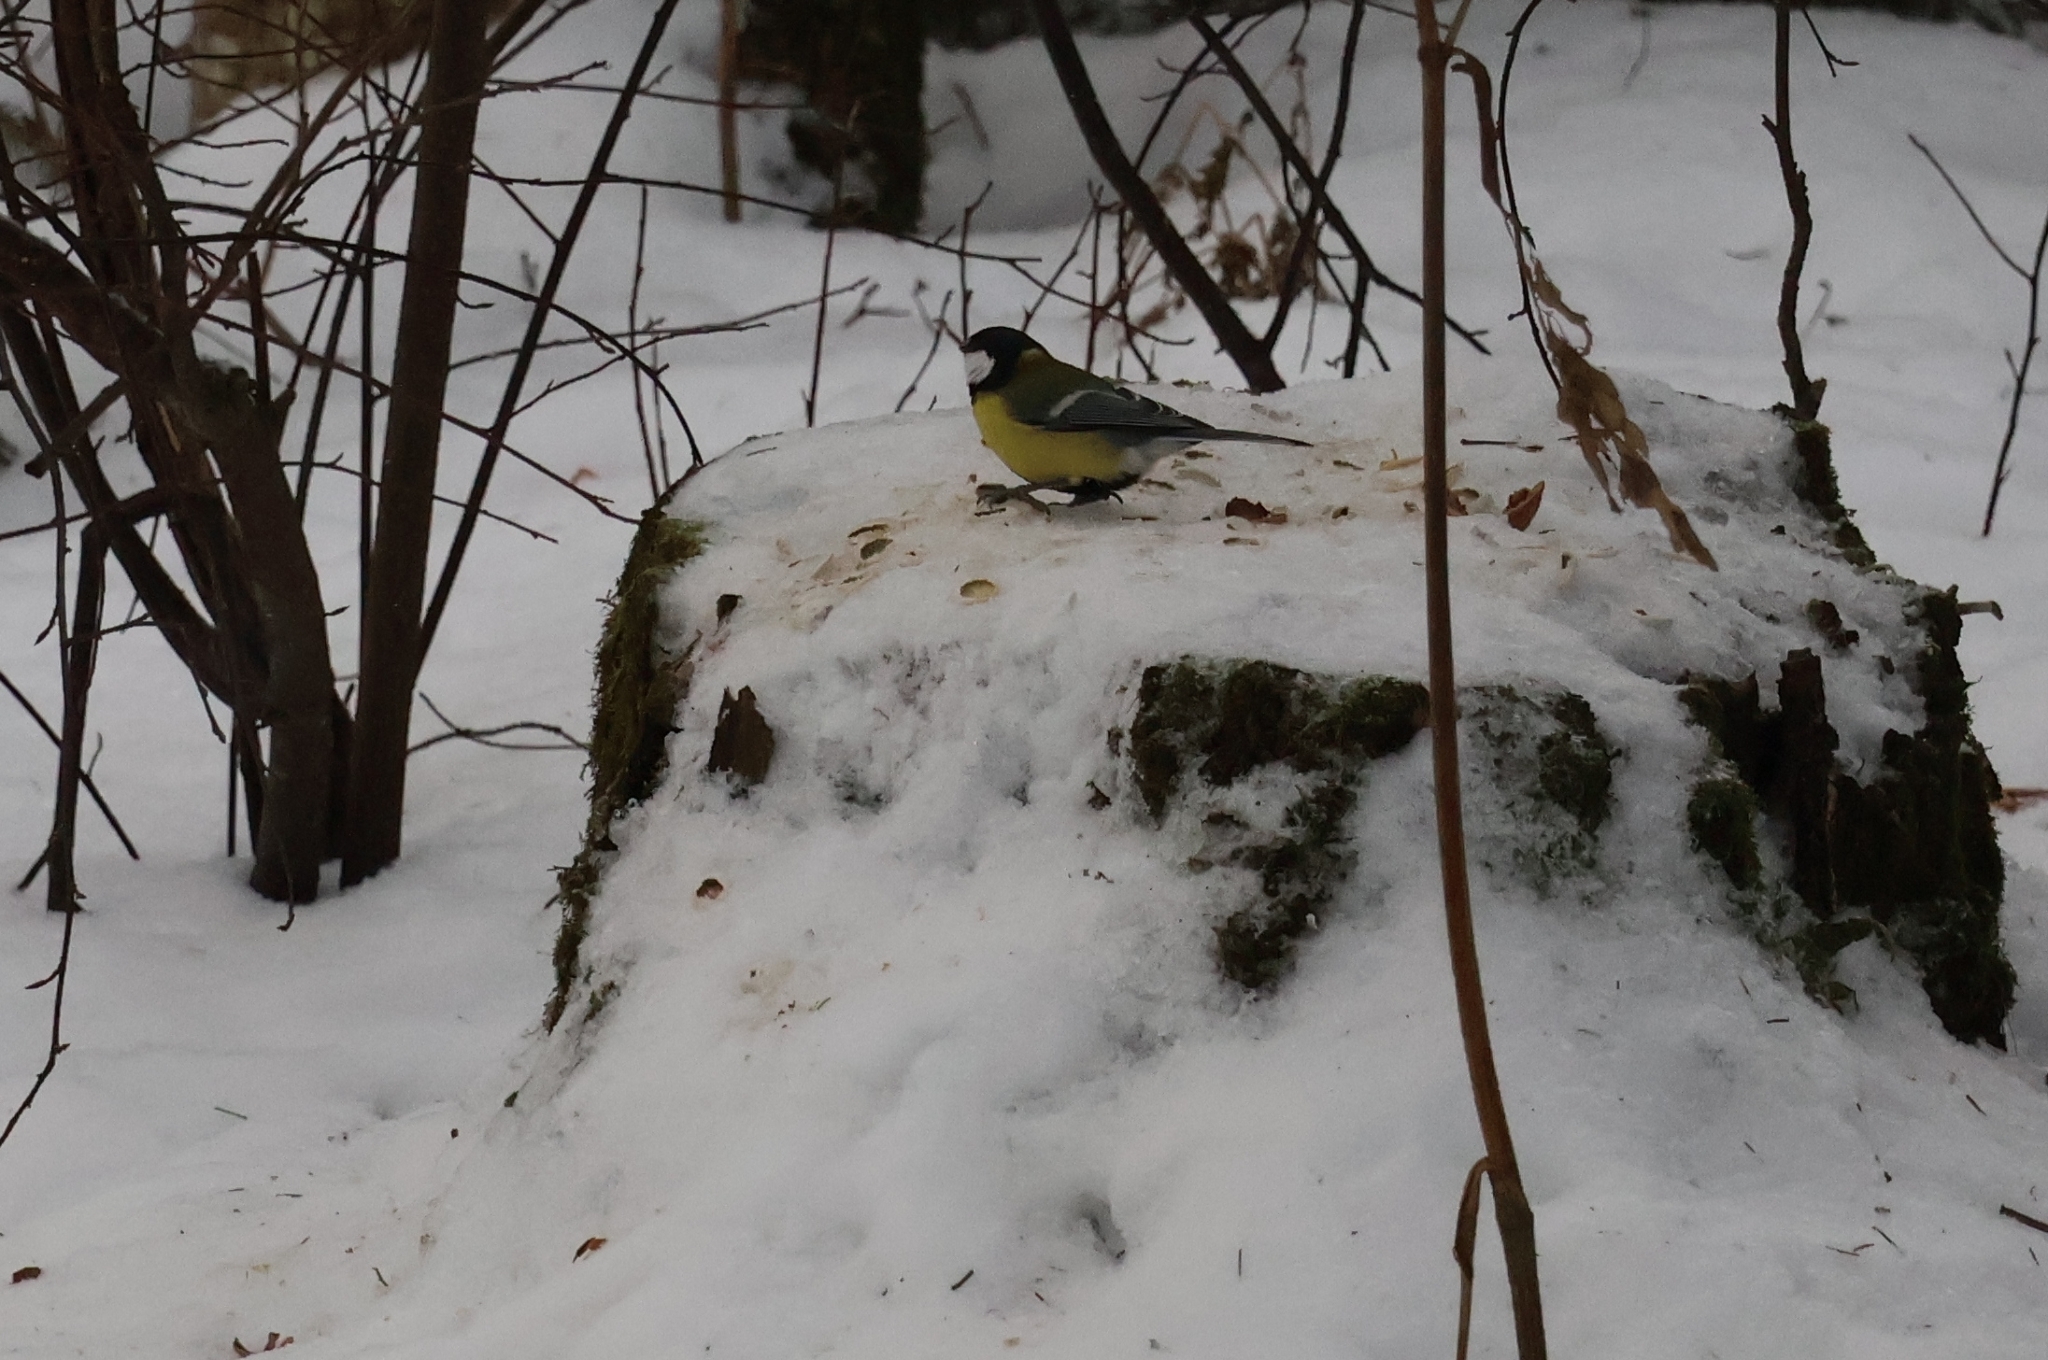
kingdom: Animalia
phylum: Chordata
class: Aves
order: Passeriformes
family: Paridae
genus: Parus
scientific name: Parus major
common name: Great tit
